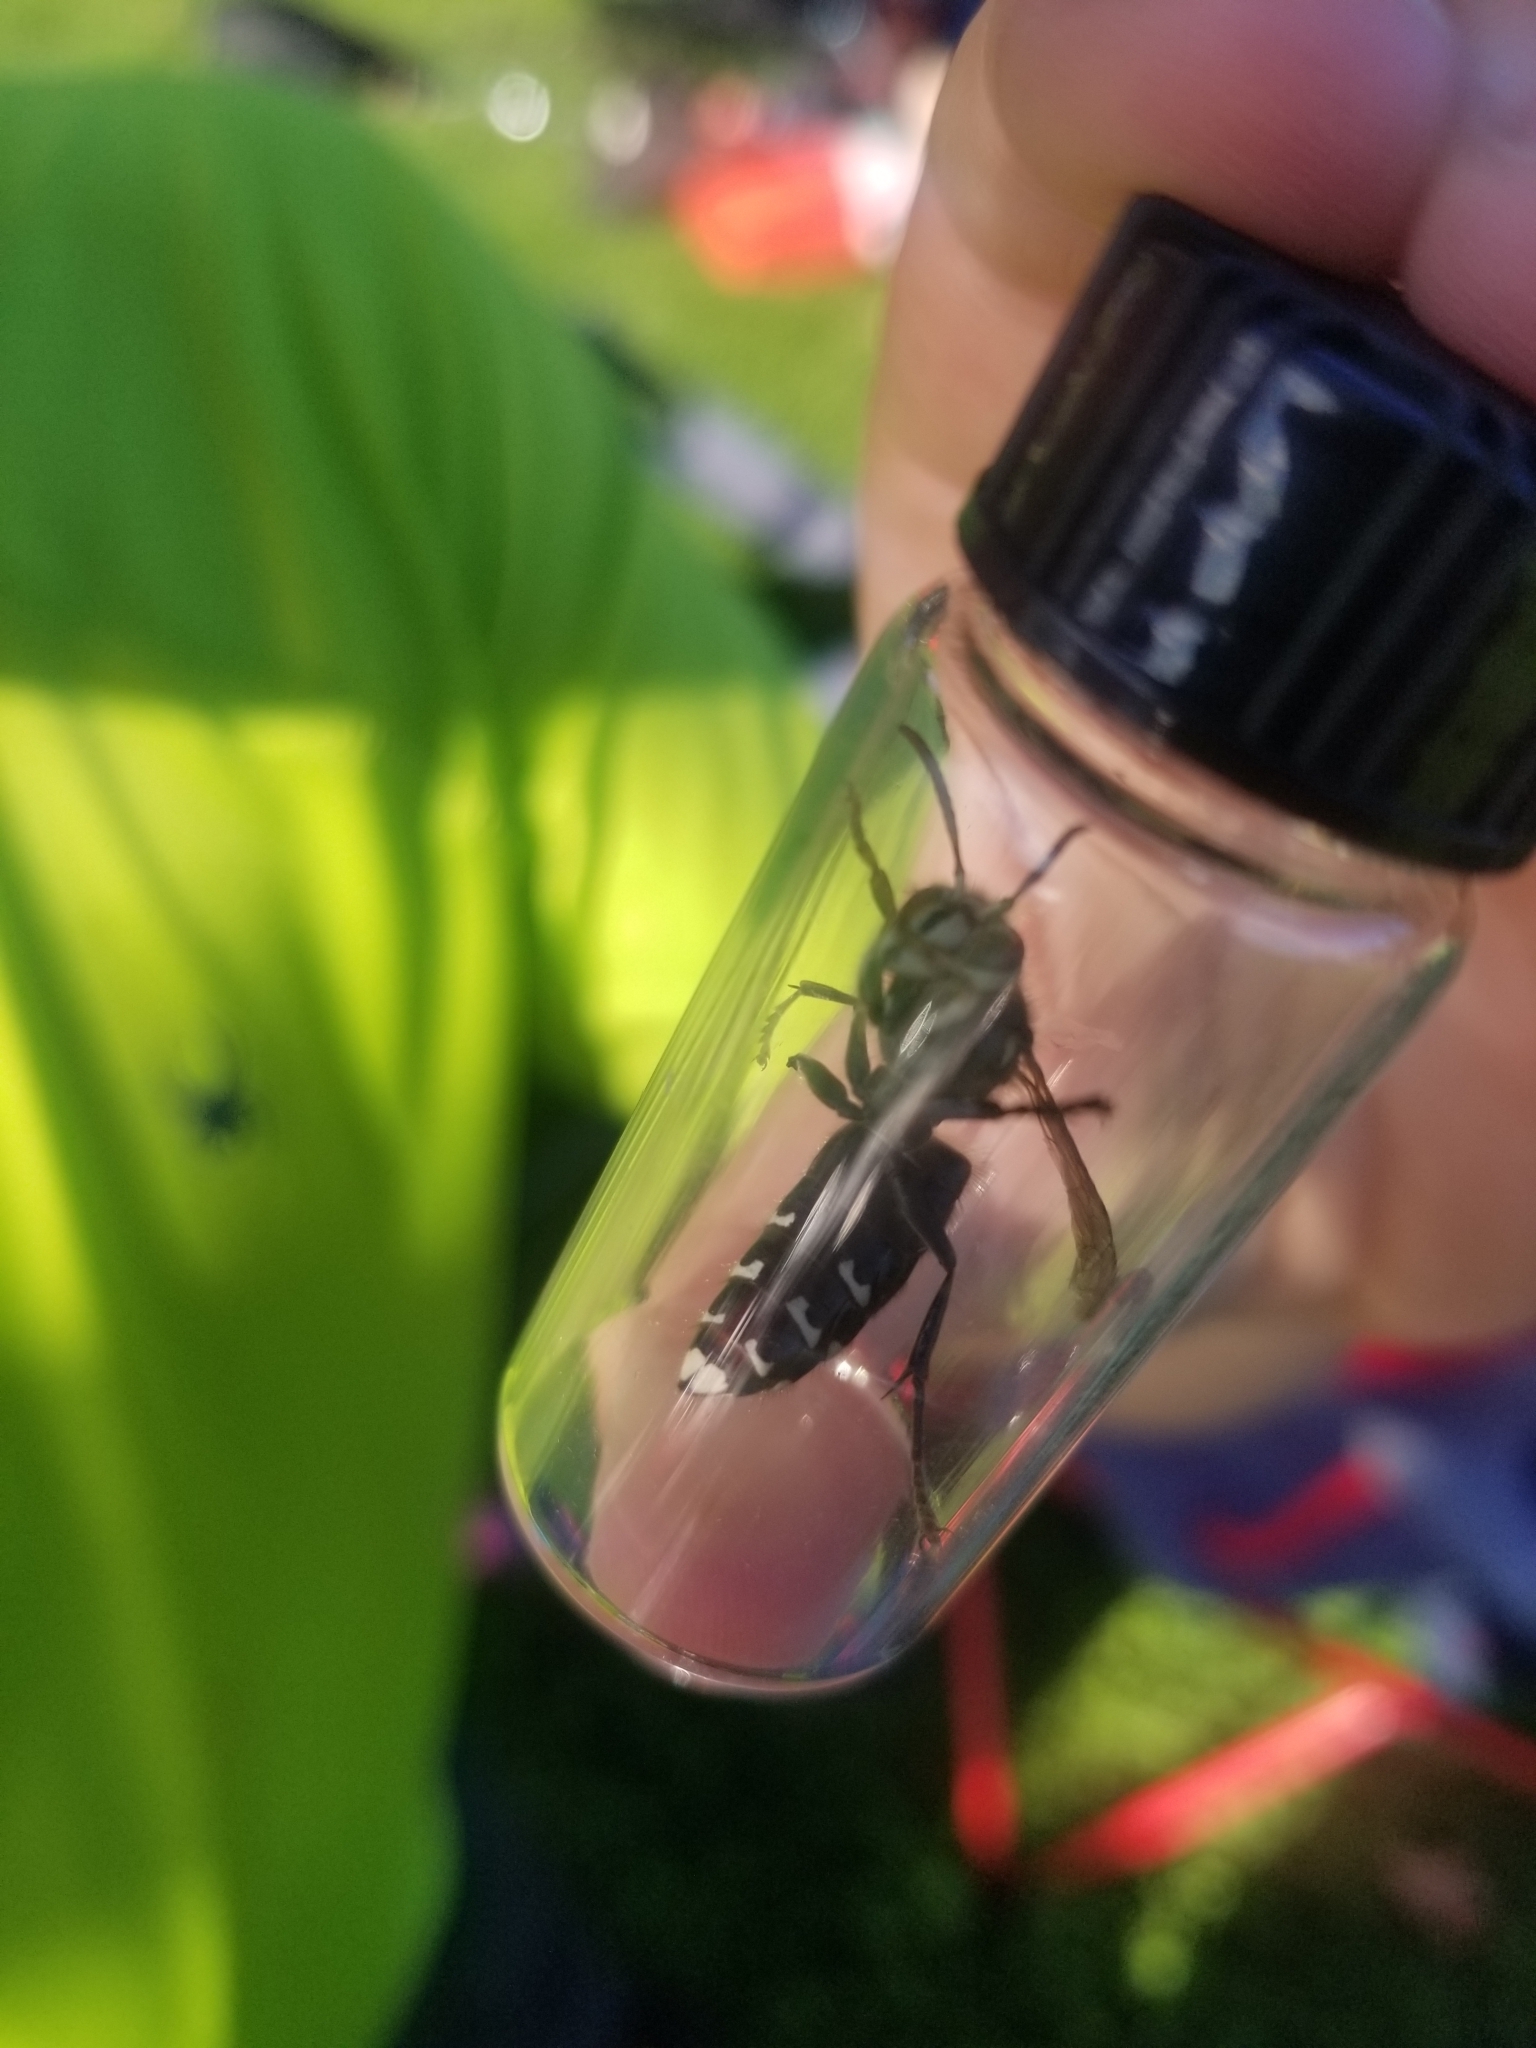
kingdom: Animalia
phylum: Arthropoda
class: Insecta
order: Hymenoptera
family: Vespidae
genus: Dolichovespula
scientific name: Dolichovespula maculata
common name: Bald-faced hornet
